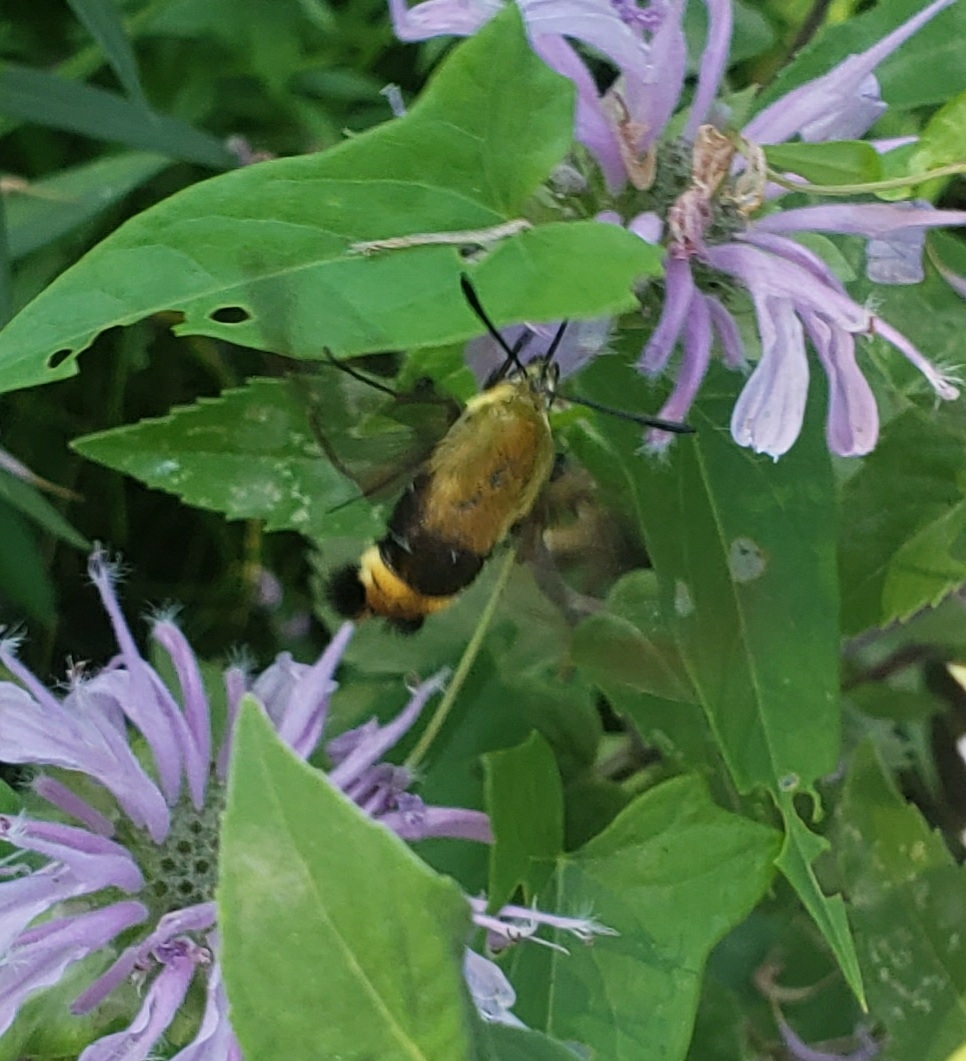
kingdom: Animalia
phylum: Arthropoda
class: Insecta
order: Lepidoptera
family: Sphingidae
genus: Hemaris
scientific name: Hemaris diffinis
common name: Bumblebee moth
